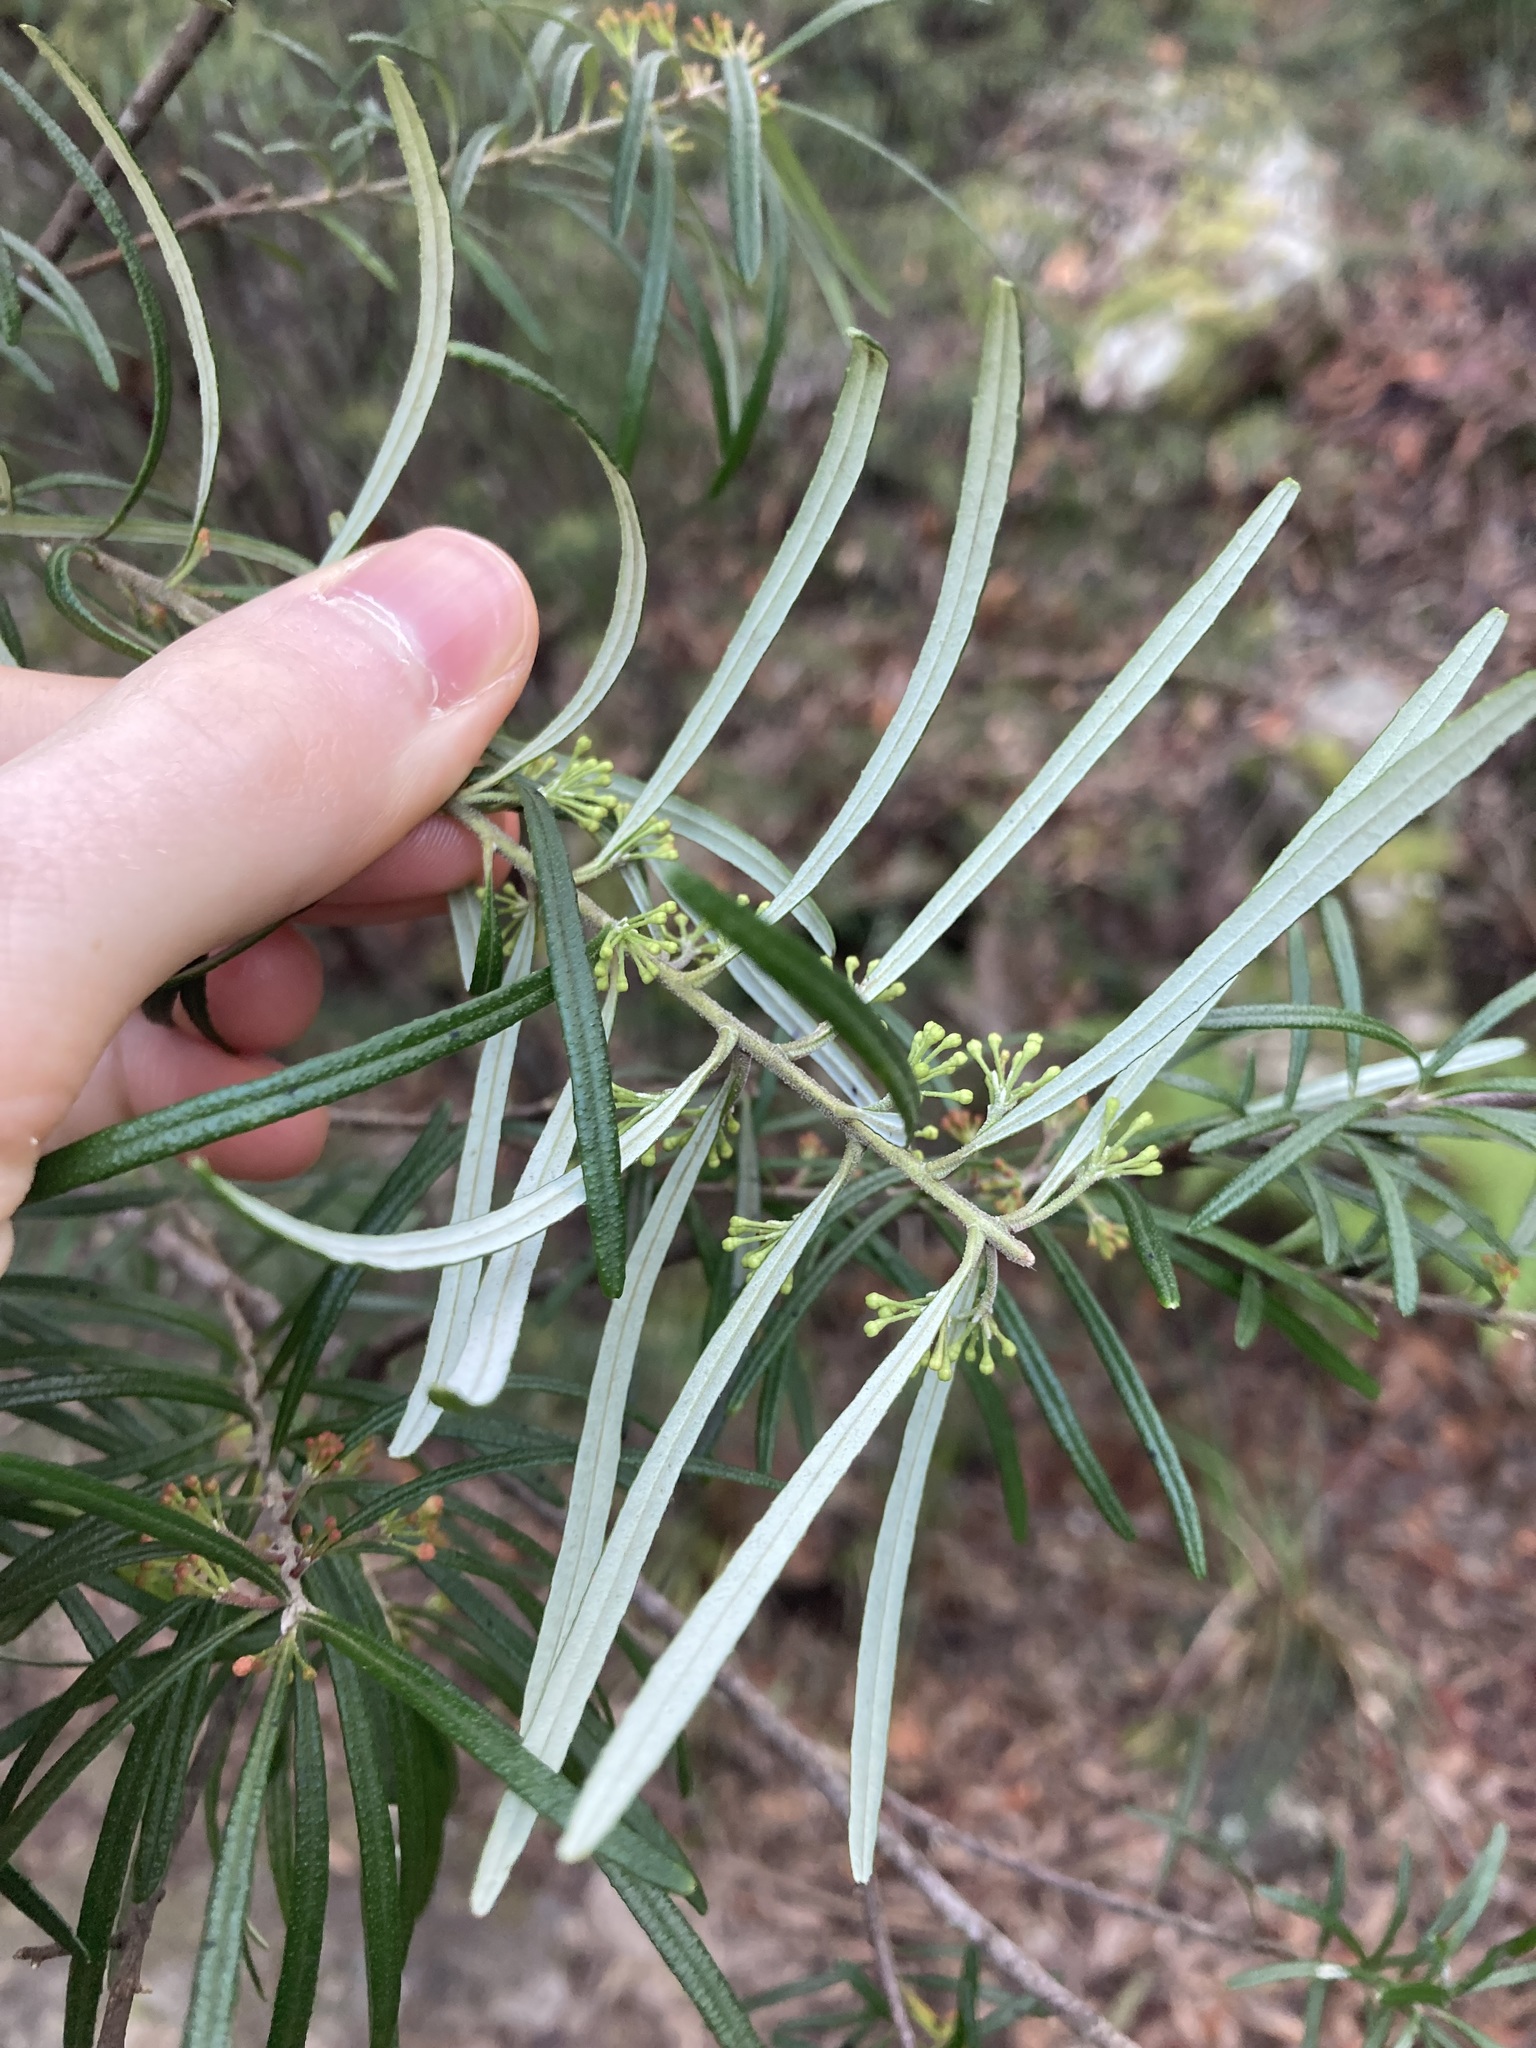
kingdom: Plantae
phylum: Tracheophyta
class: Magnoliopsida
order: Sapindales
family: Rutaceae
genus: Leionema
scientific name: Leionema dentatum
